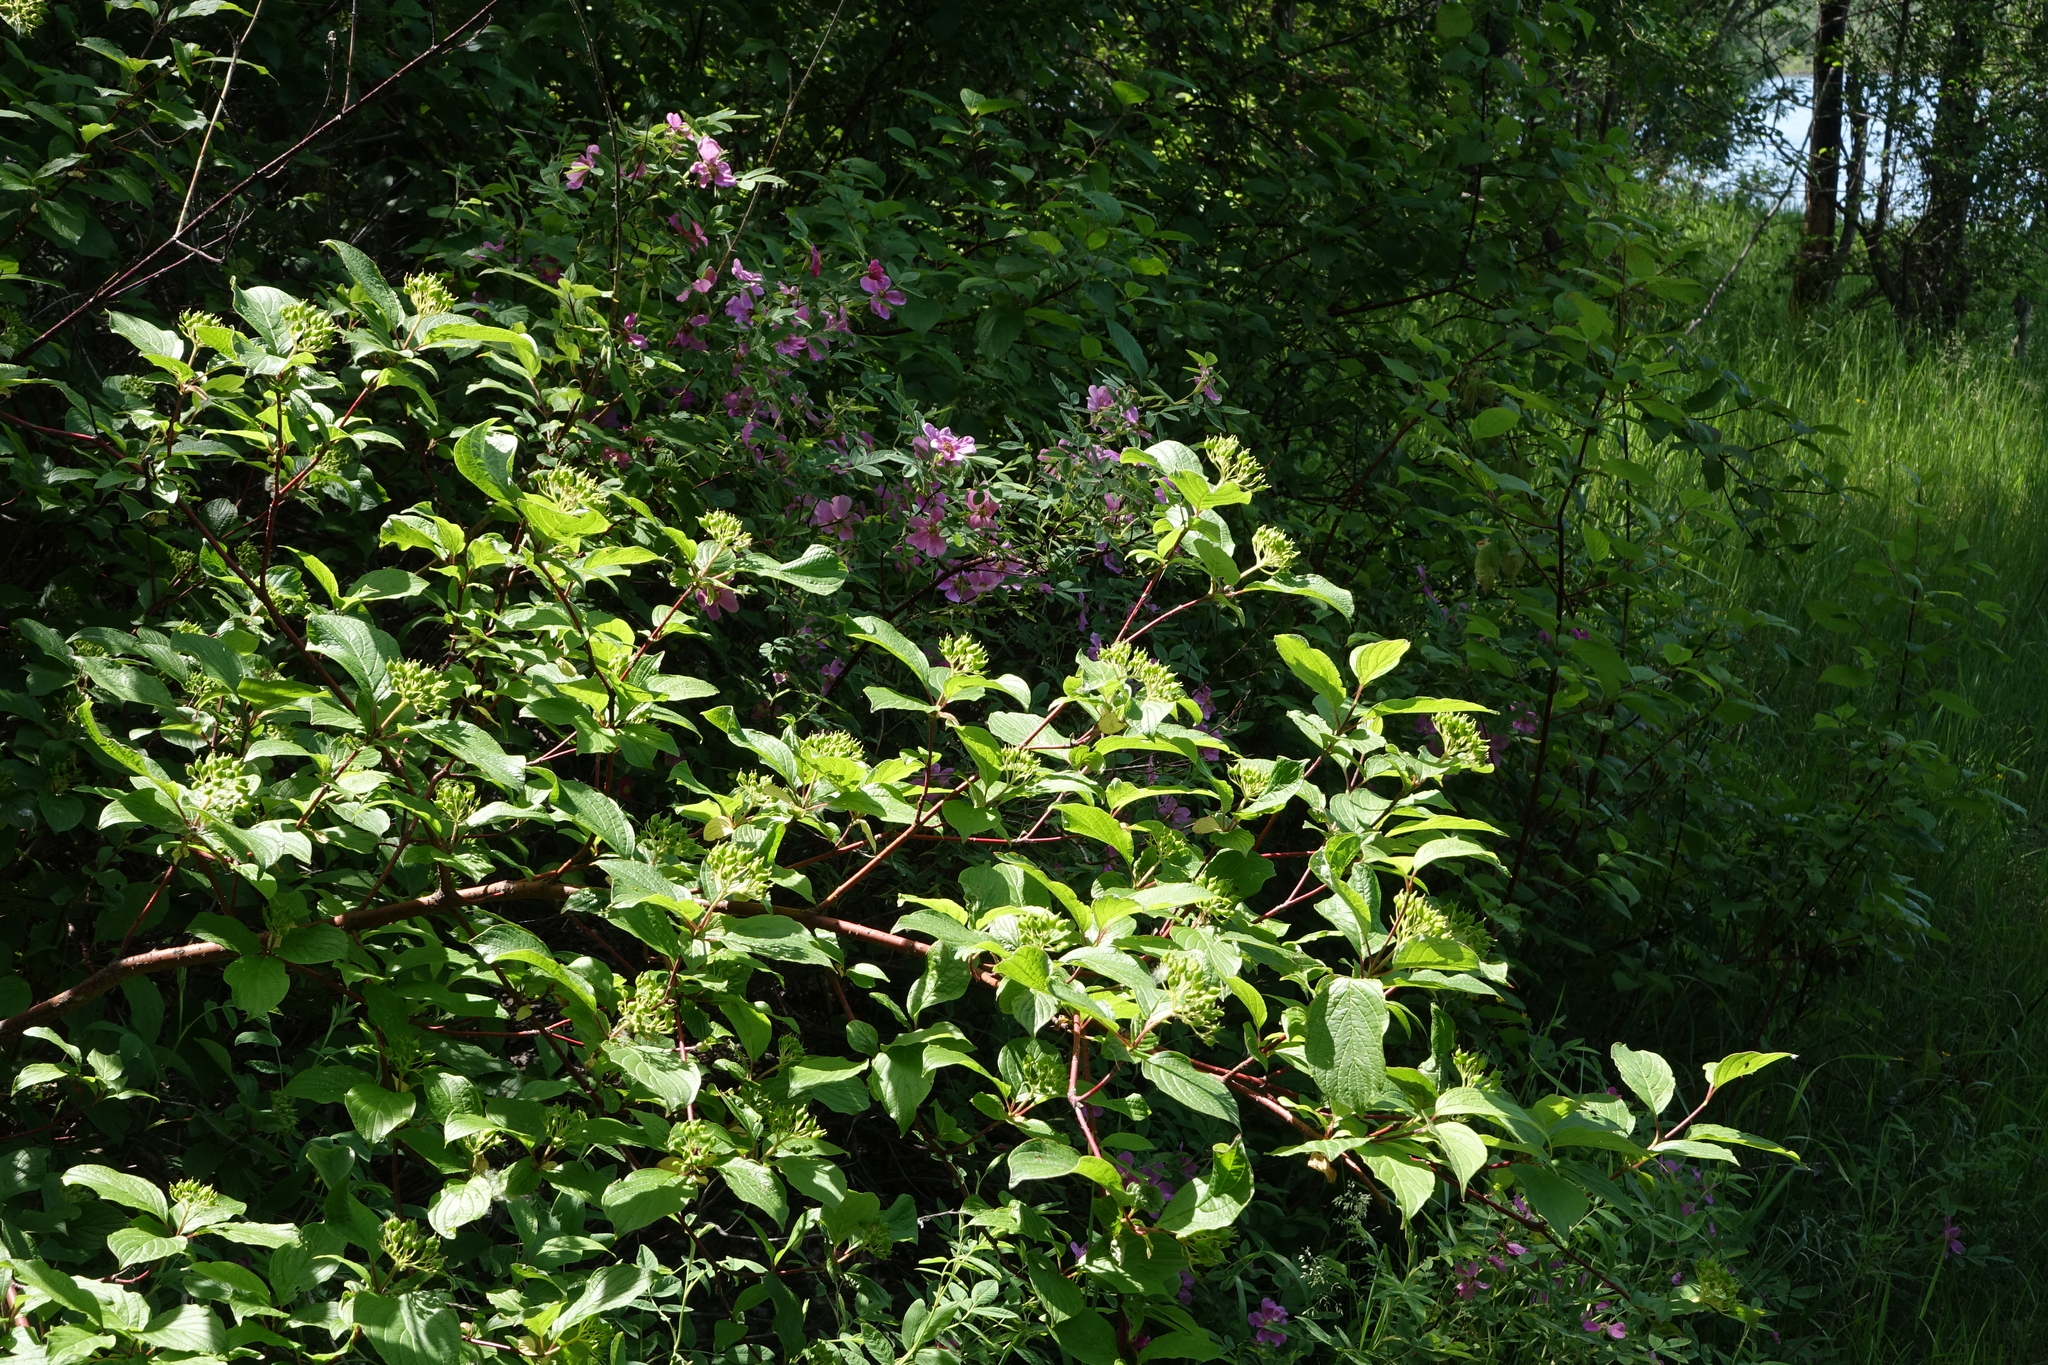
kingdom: Plantae
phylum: Tracheophyta
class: Magnoliopsida
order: Cornales
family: Cornaceae
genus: Cornus
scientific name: Cornus alba
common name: White dogwood
